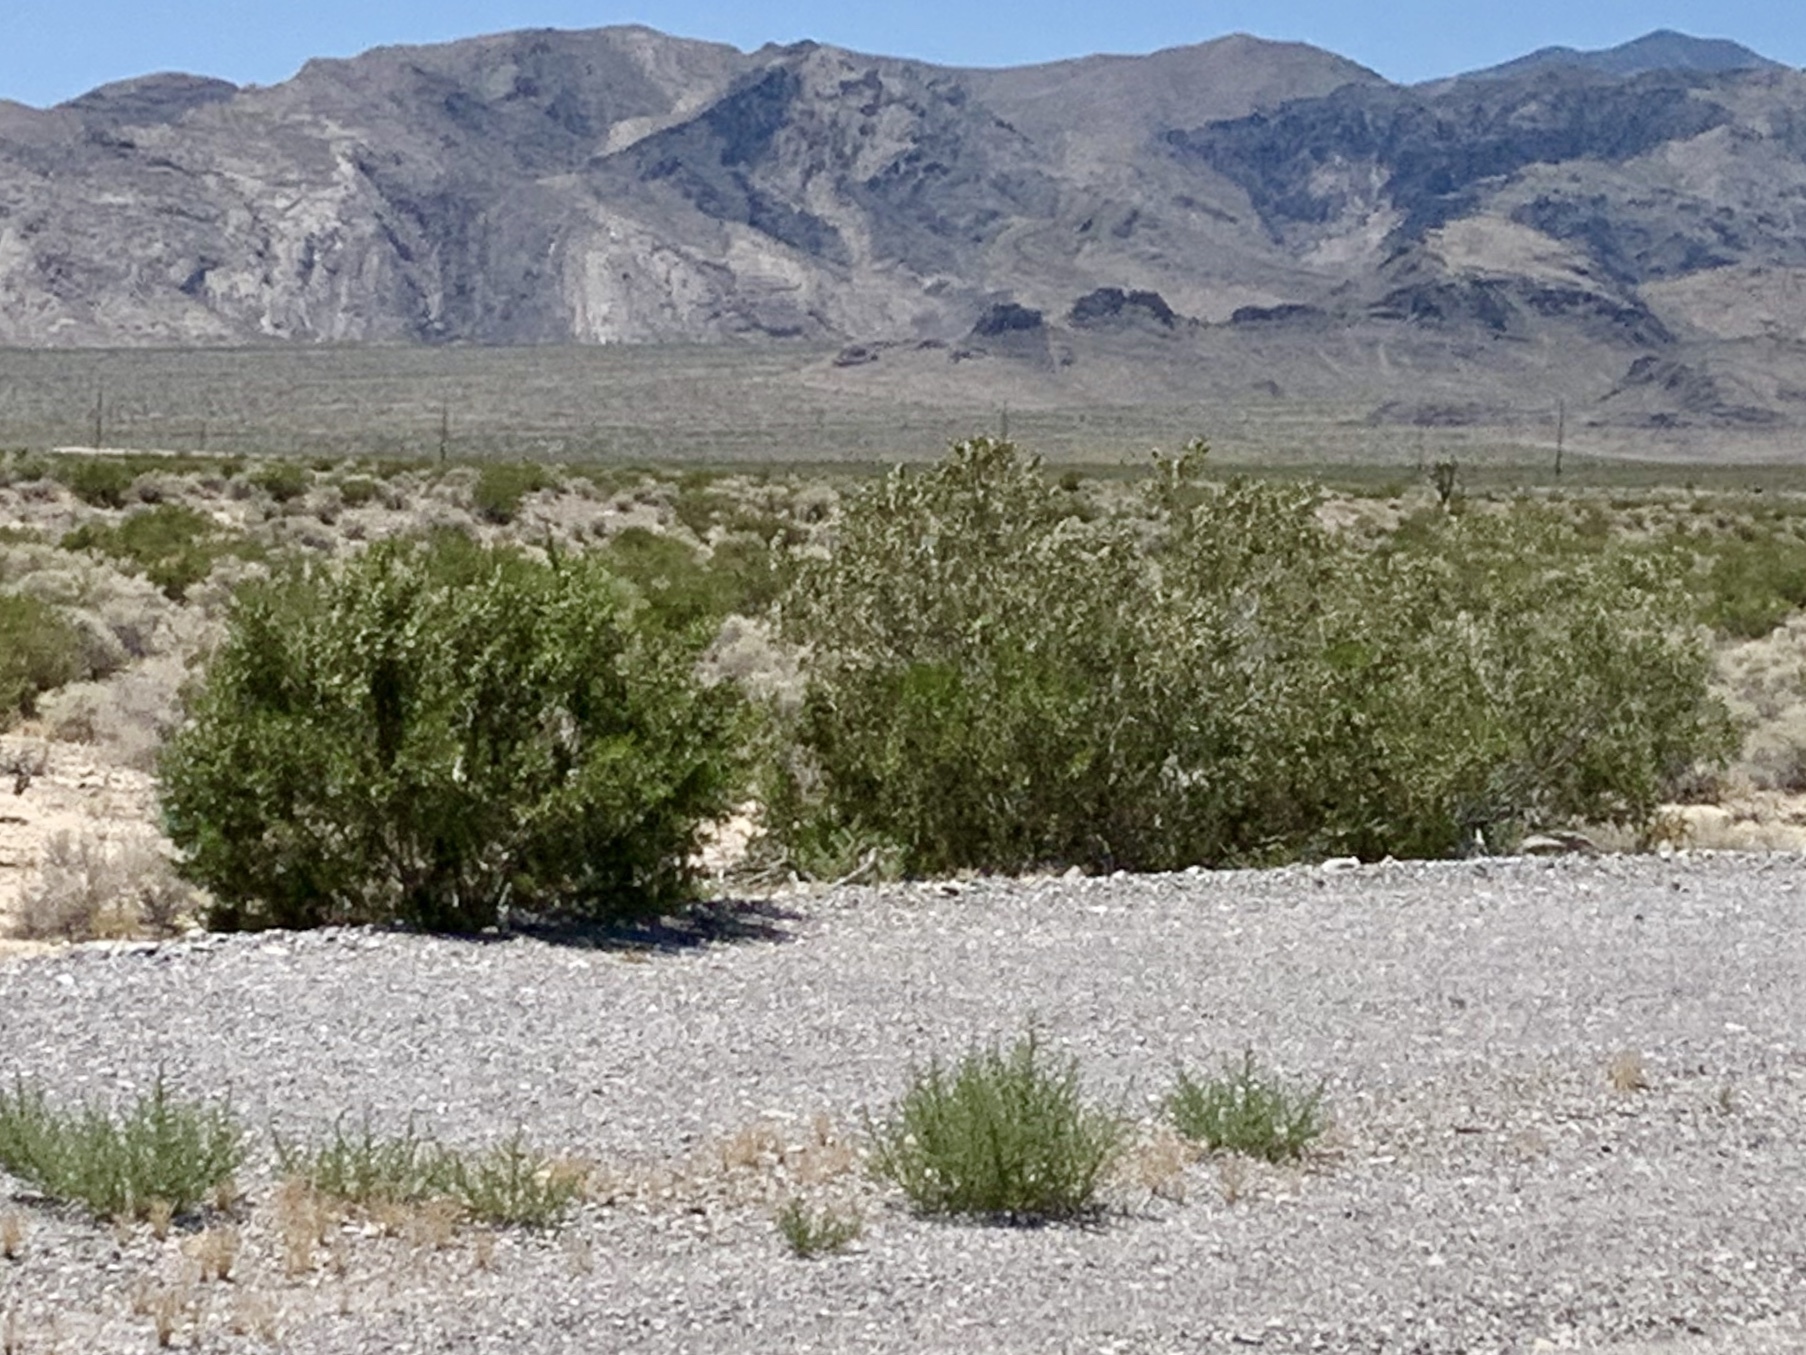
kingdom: Plantae
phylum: Tracheophyta
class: Magnoliopsida
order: Zygophyllales
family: Zygophyllaceae
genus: Larrea
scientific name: Larrea tridentata
